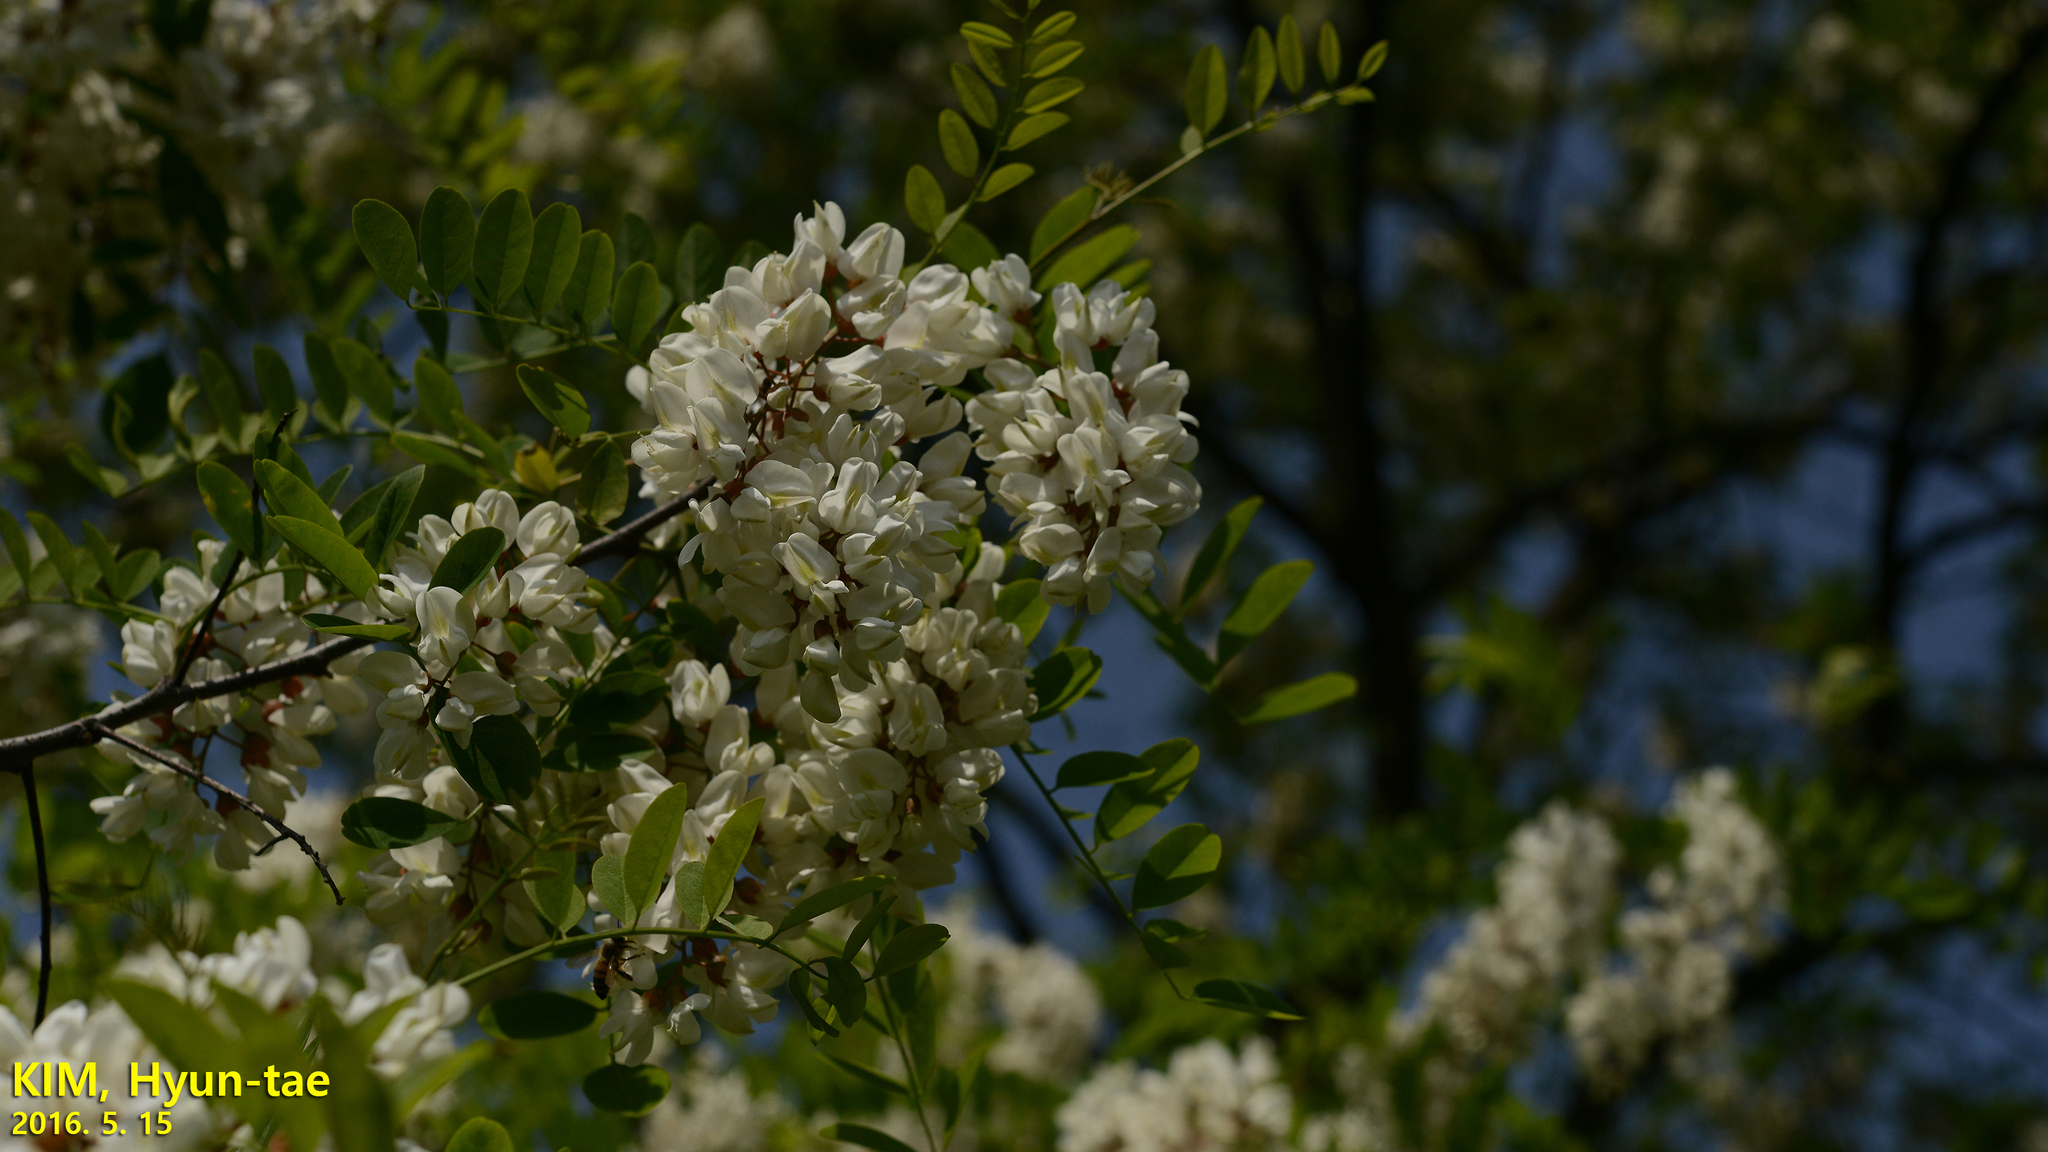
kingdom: Plantae
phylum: Tracheophyta
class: Magnoliopsida
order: Fabales
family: Fabaceae
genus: Robinia
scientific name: Robinia pseudoacacia
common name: Black locust
